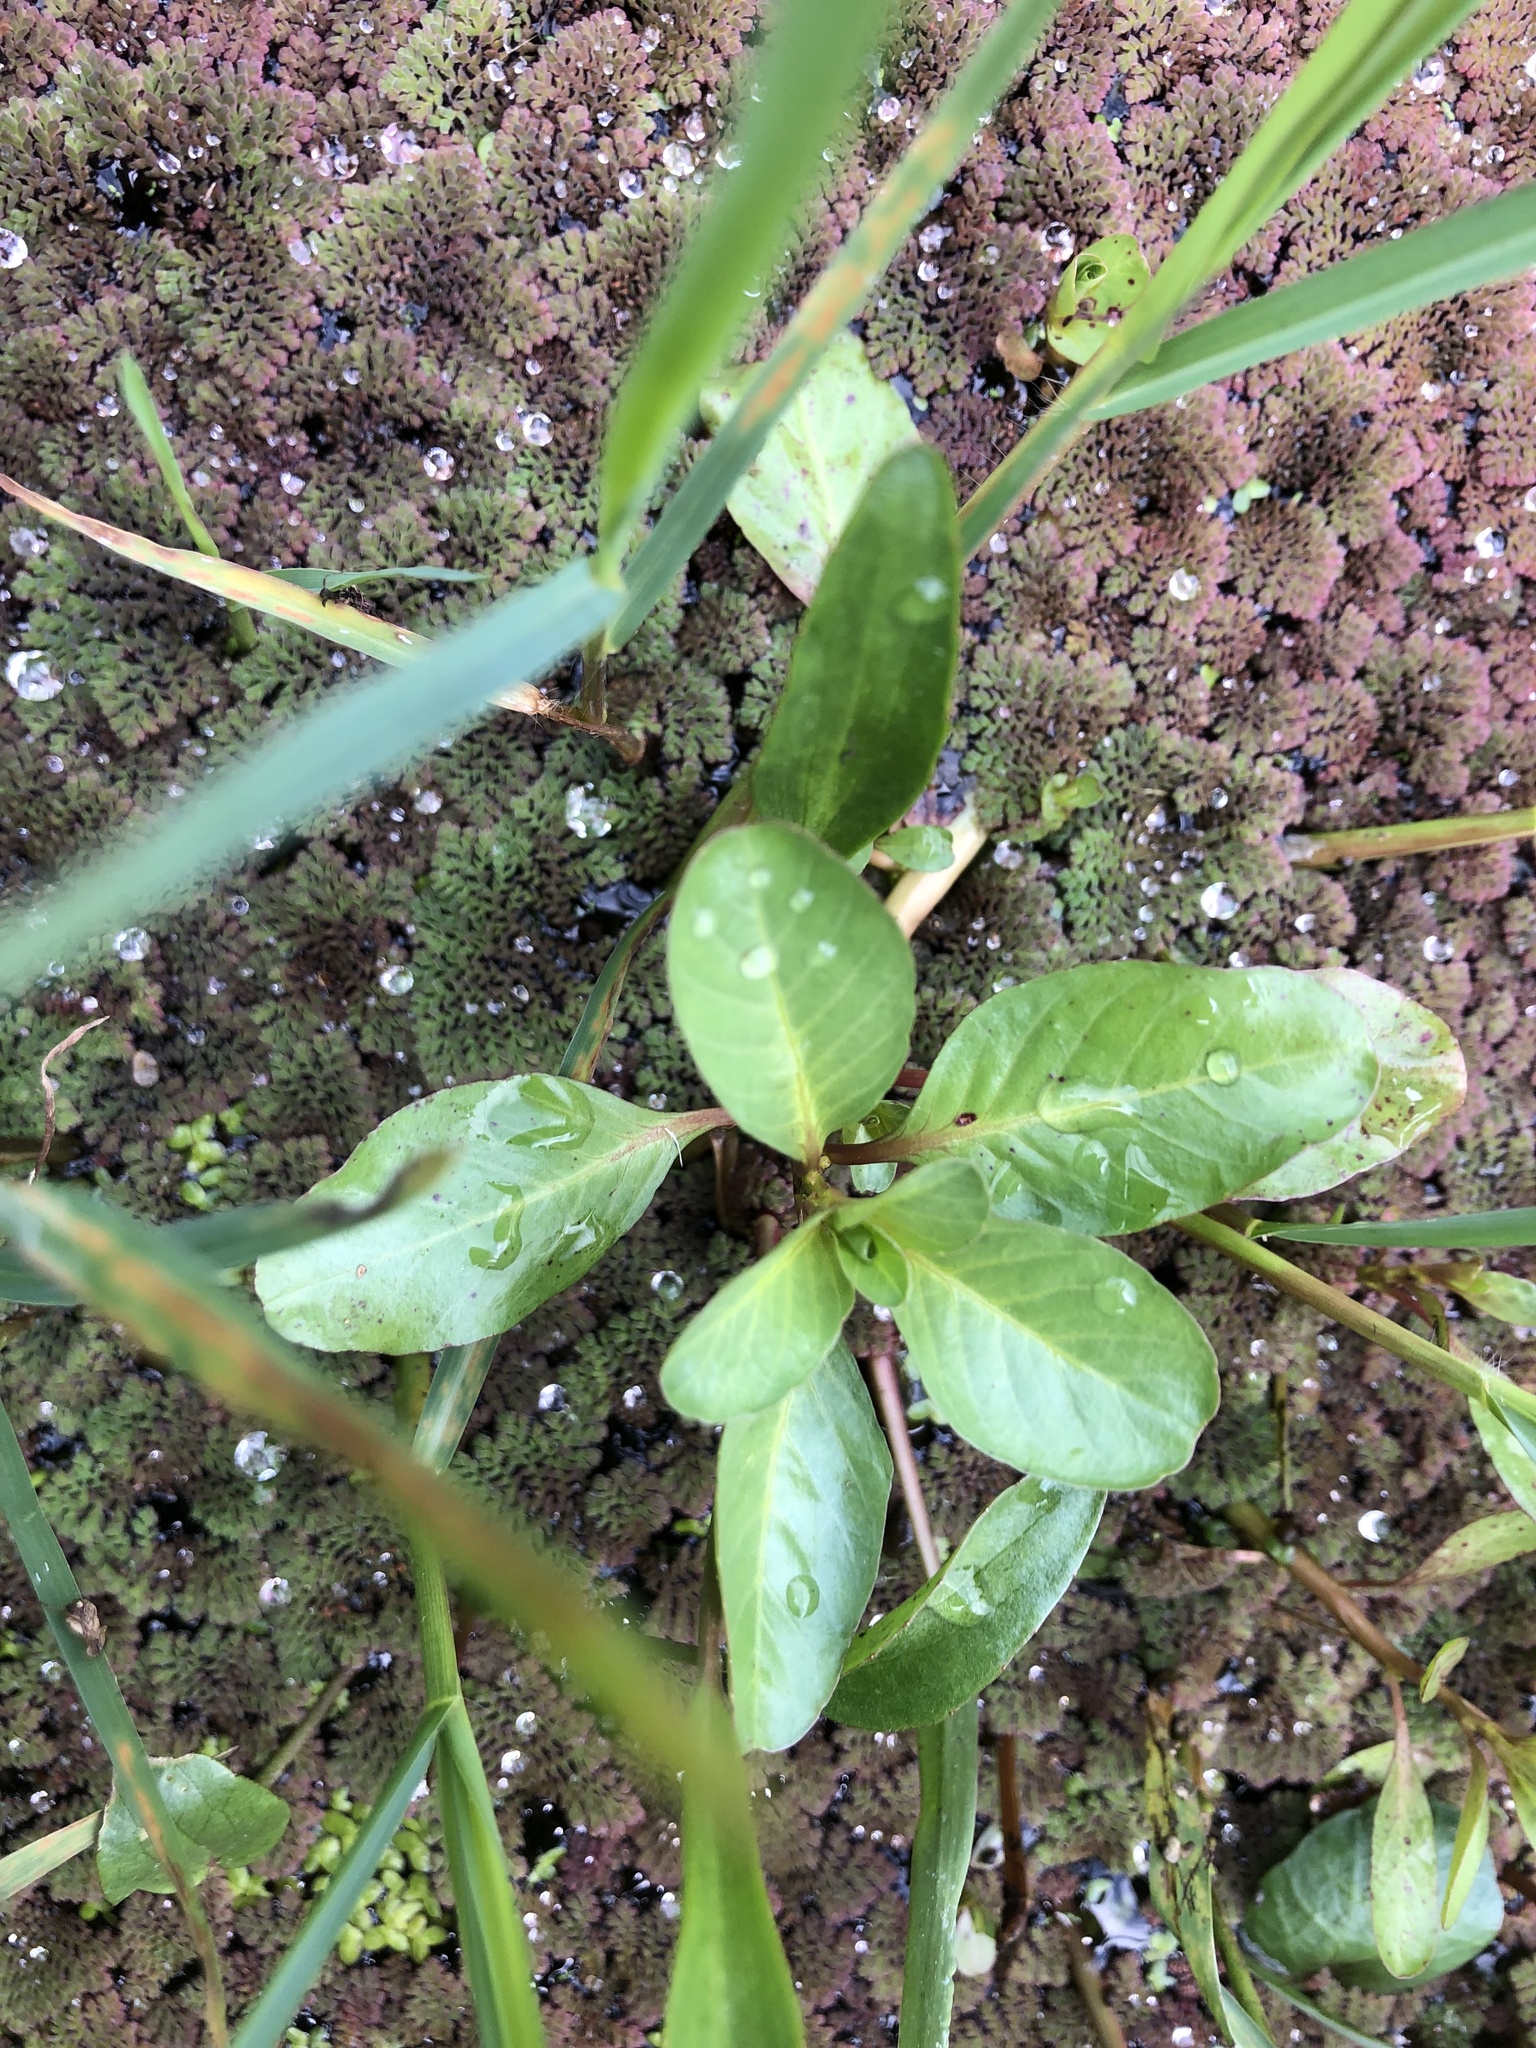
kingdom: Plantae
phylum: Tracheophyta
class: Magnoliopsida
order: Myrtales
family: Onagraceae
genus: Ludwigia
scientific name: Ludwigia peploides
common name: Floating primrose-willow
